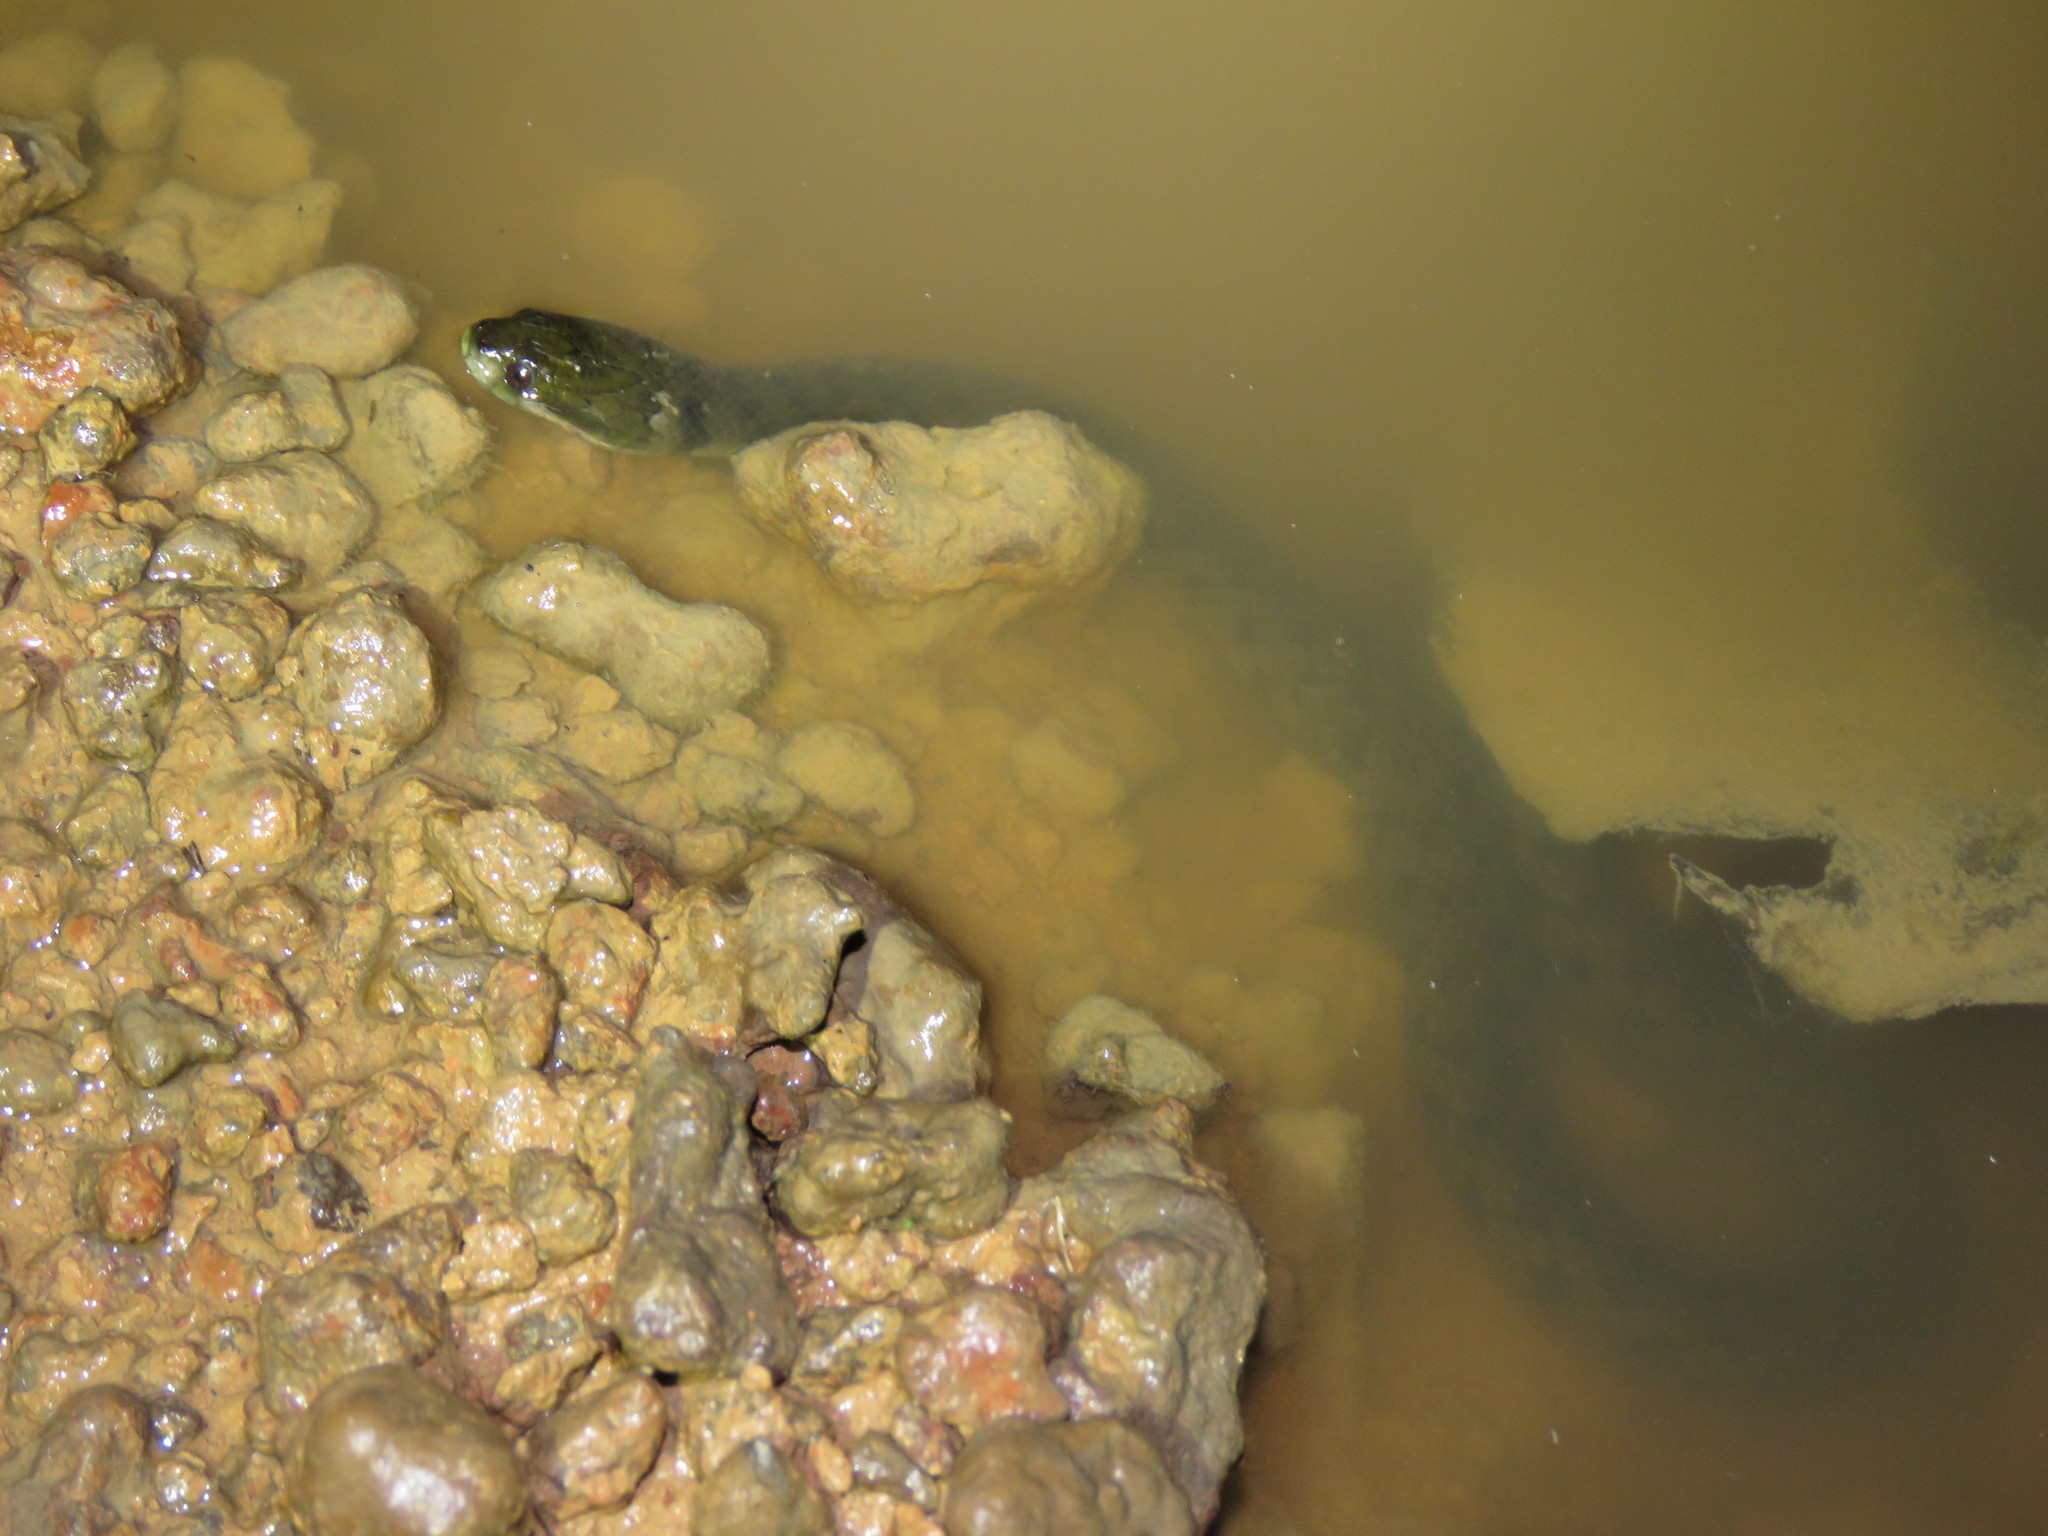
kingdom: Animalia
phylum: Chordata
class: Squamata
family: Colubridae
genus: Helicops
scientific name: Helicops leopardinus
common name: Leopard keelback
